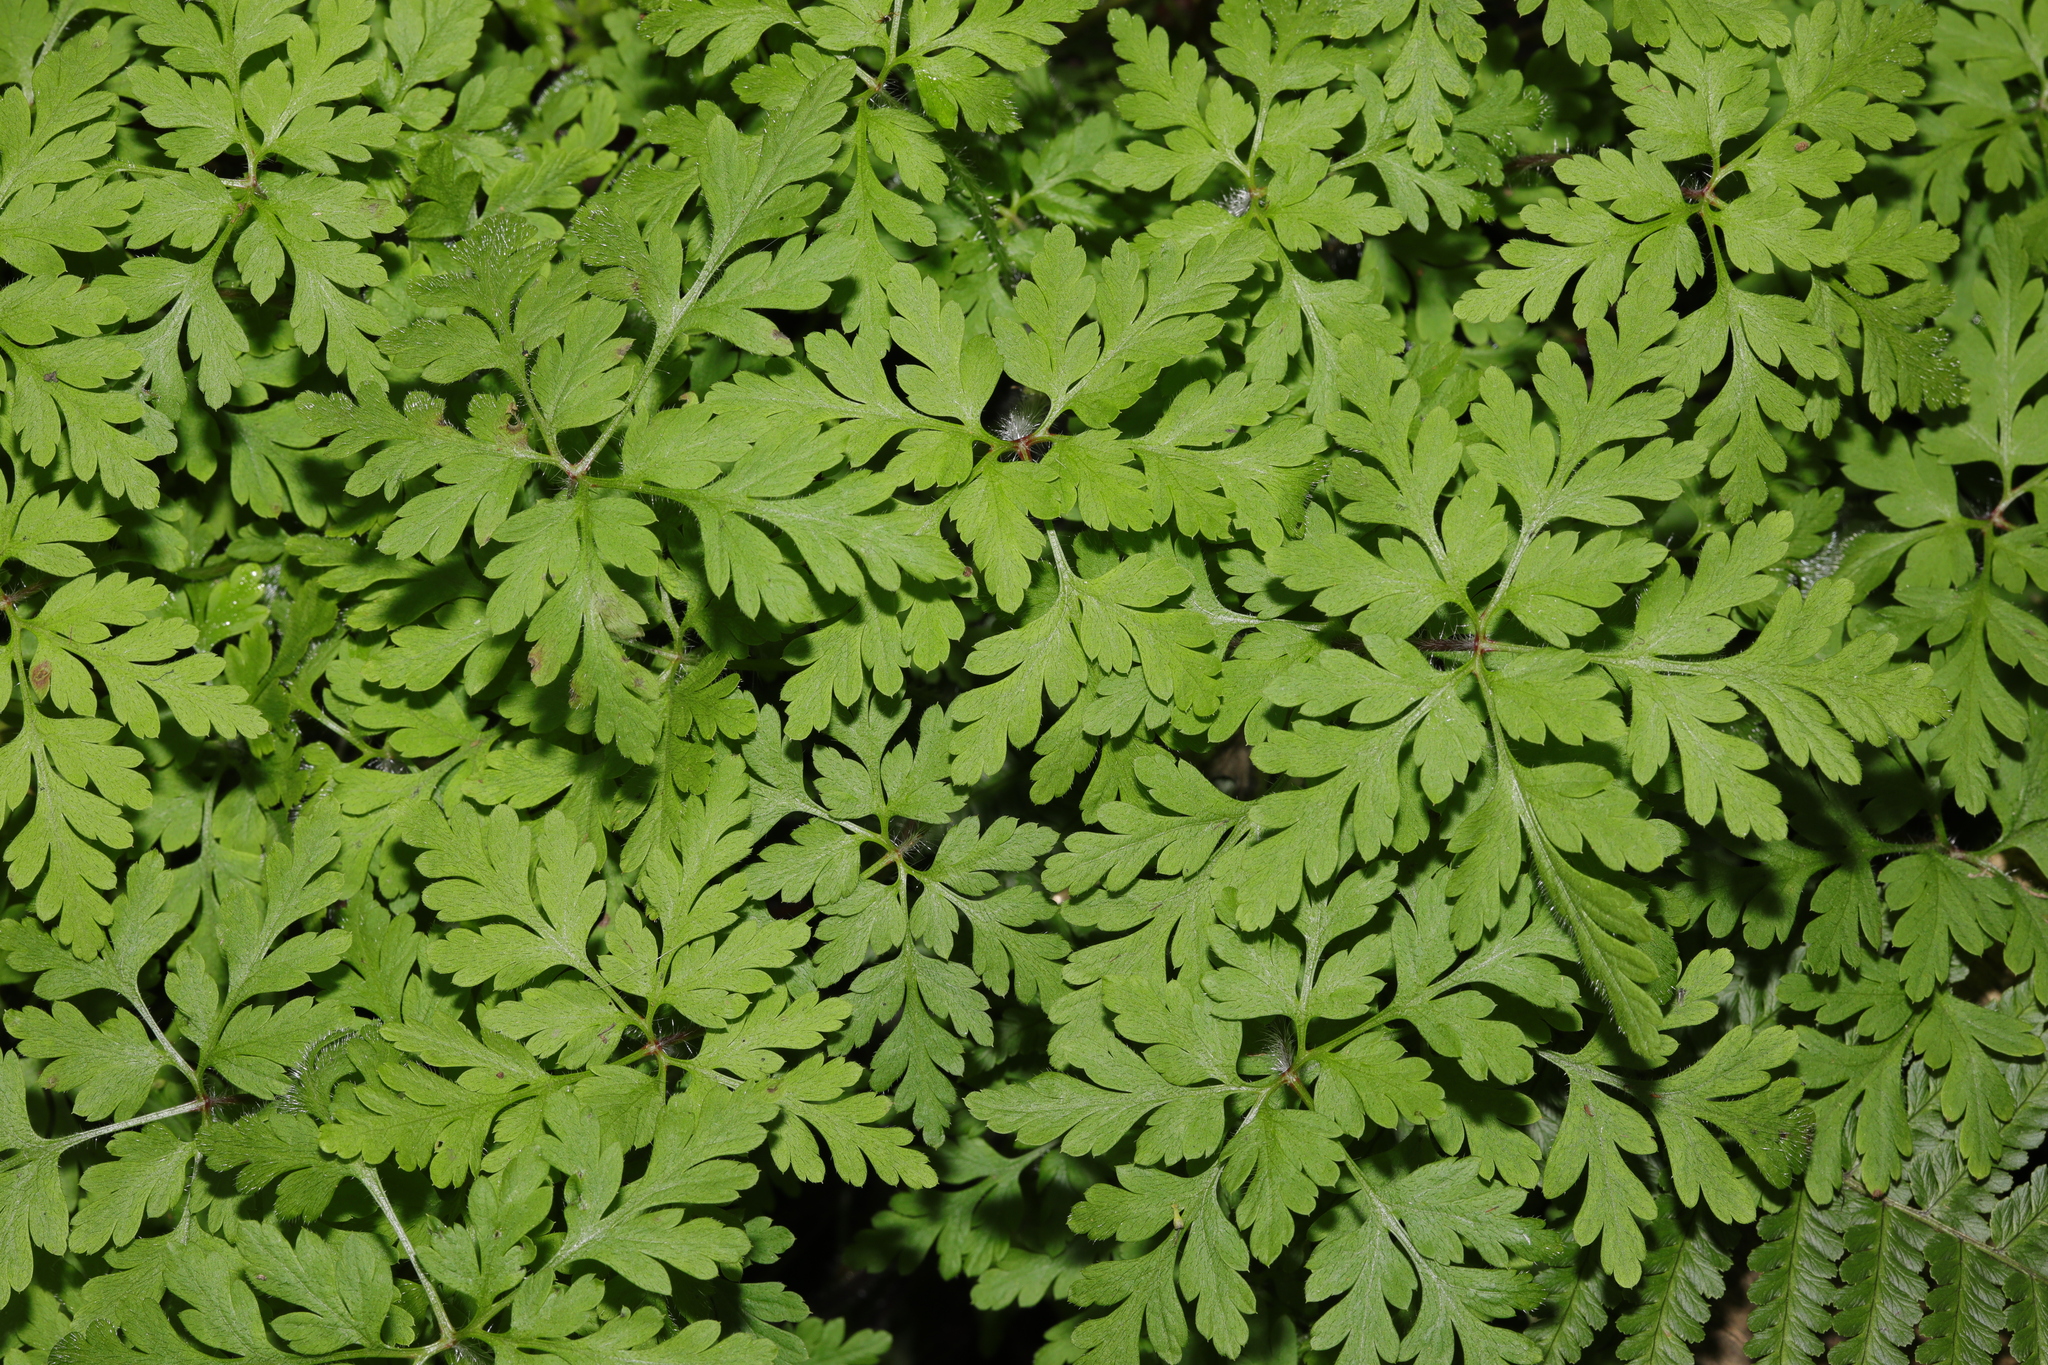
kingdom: Plantae
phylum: Tracheophyta
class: Magnoliopsida
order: Geraniales
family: Geraniaceae
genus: Geranium
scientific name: Geranium robertianum
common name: Herb-robert
